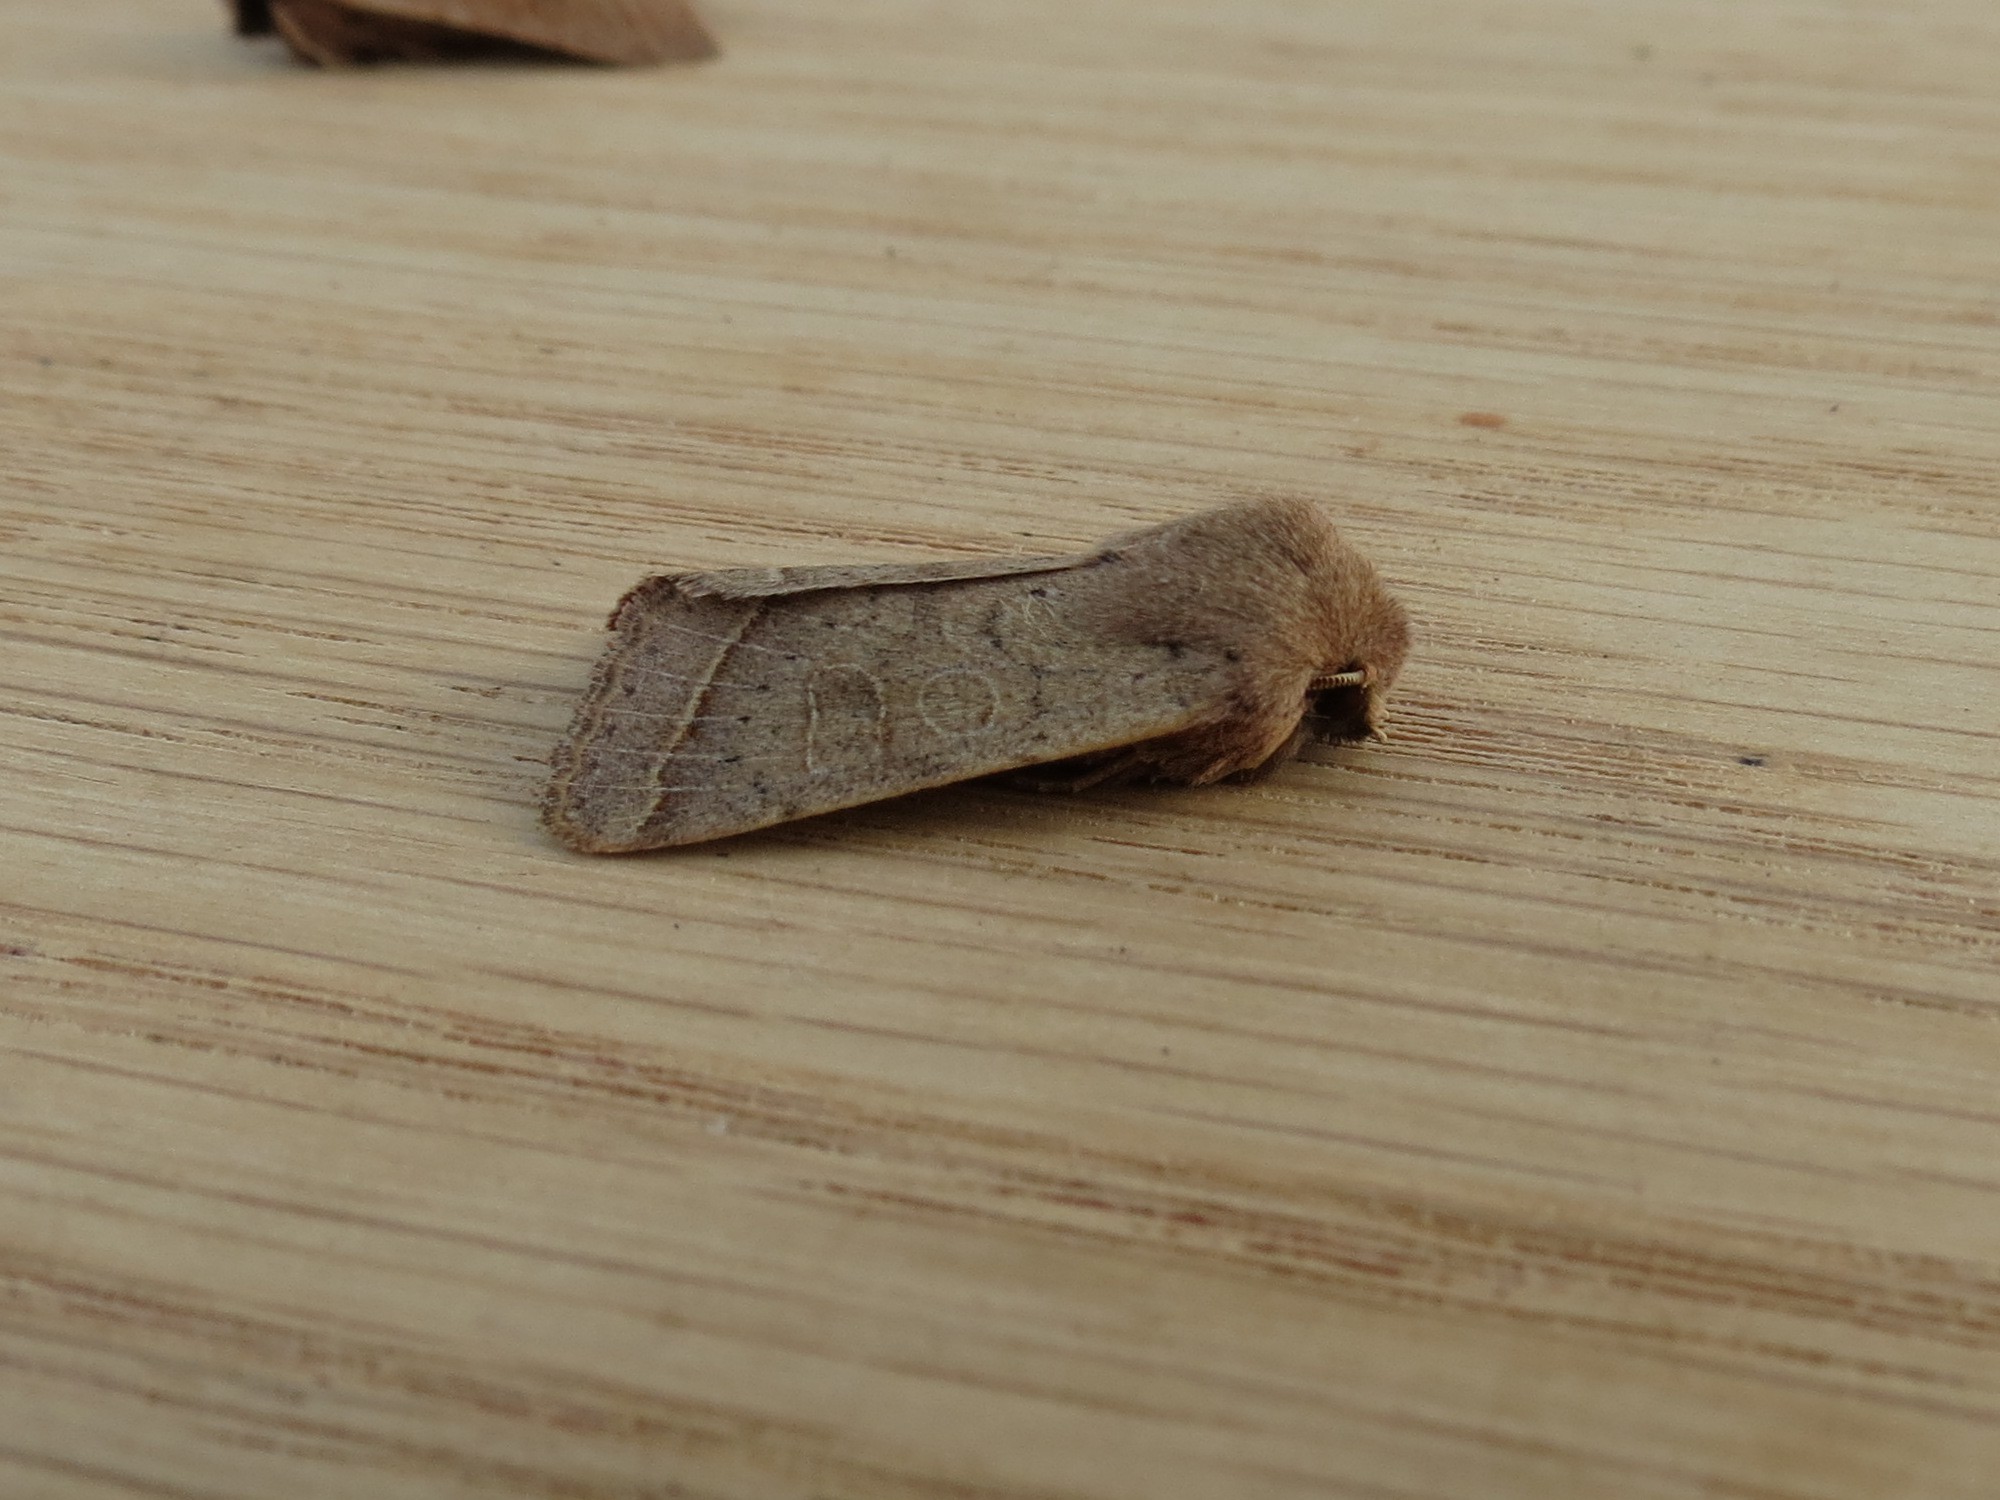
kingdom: Animalia
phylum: Arthropoda
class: Insecta
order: Lepidoptera
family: Noctuidae
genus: Orthosia
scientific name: Orthosia cerasi
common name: Common quaker
